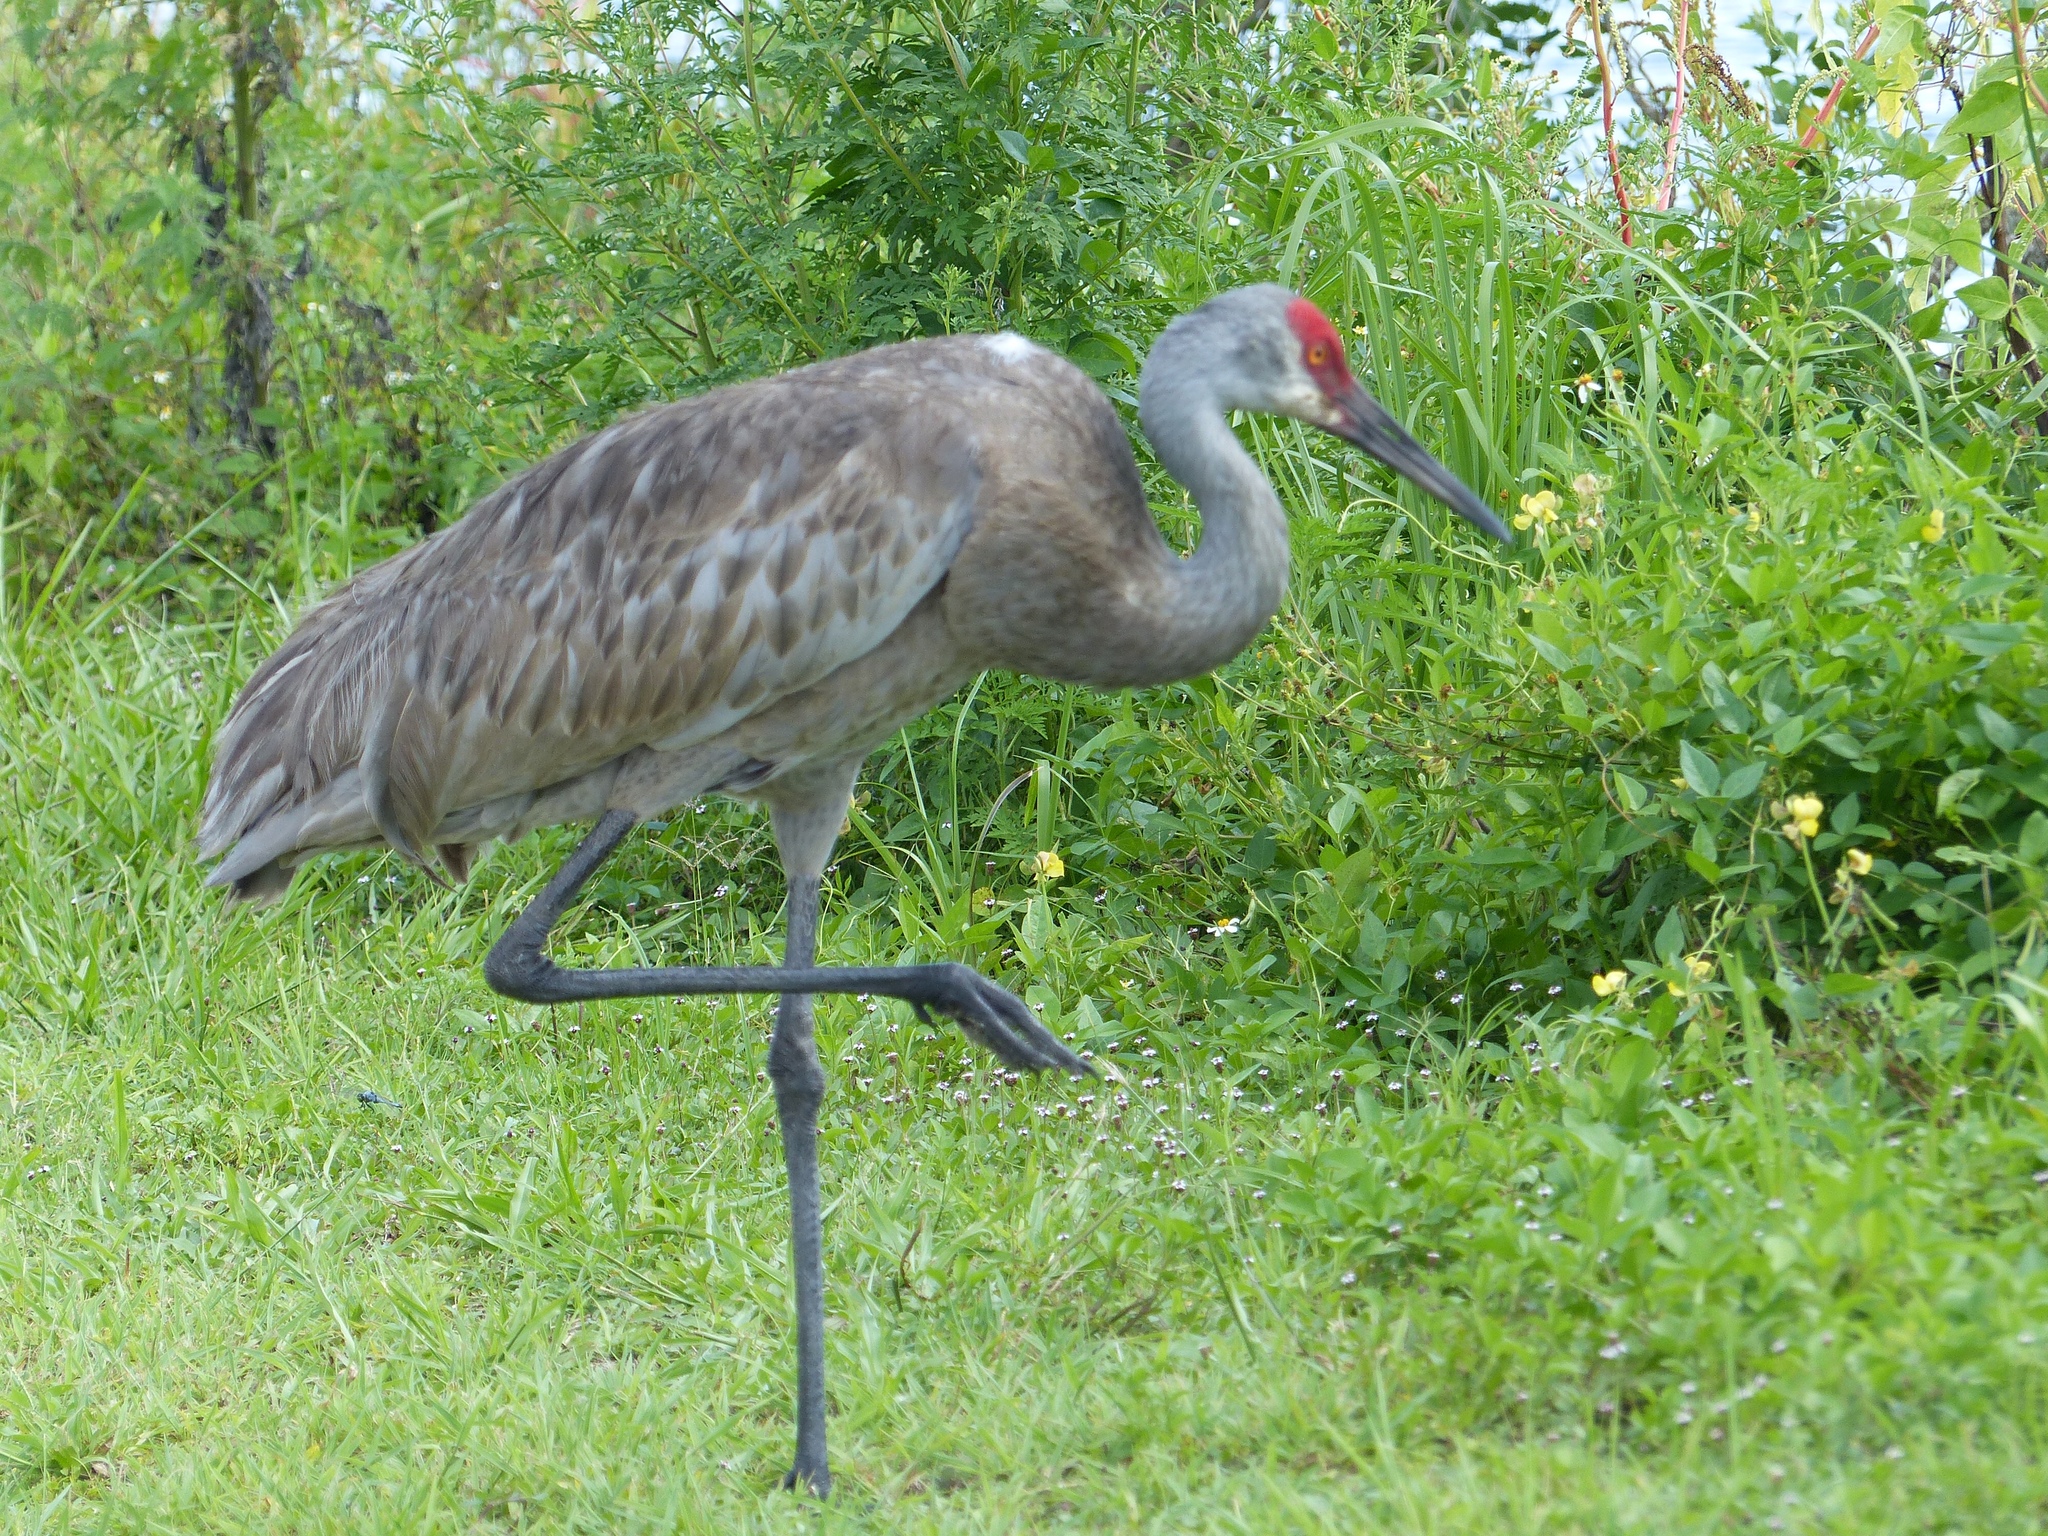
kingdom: Animalia
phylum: Chordata
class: Aves
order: Gruiformes
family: Gruidae
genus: Grus
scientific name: Grus canadensis
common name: Sandhill crane
